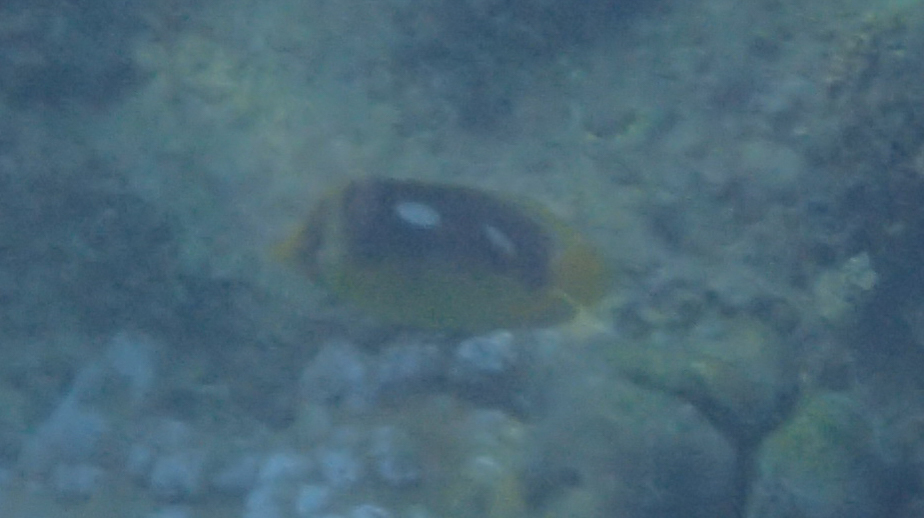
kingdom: Animalia
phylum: Chordata
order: Perciformes
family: Chaetodontidae
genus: Chaetodon
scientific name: Chaetodon quadrimaculatus
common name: Fourspot butterflyfish
